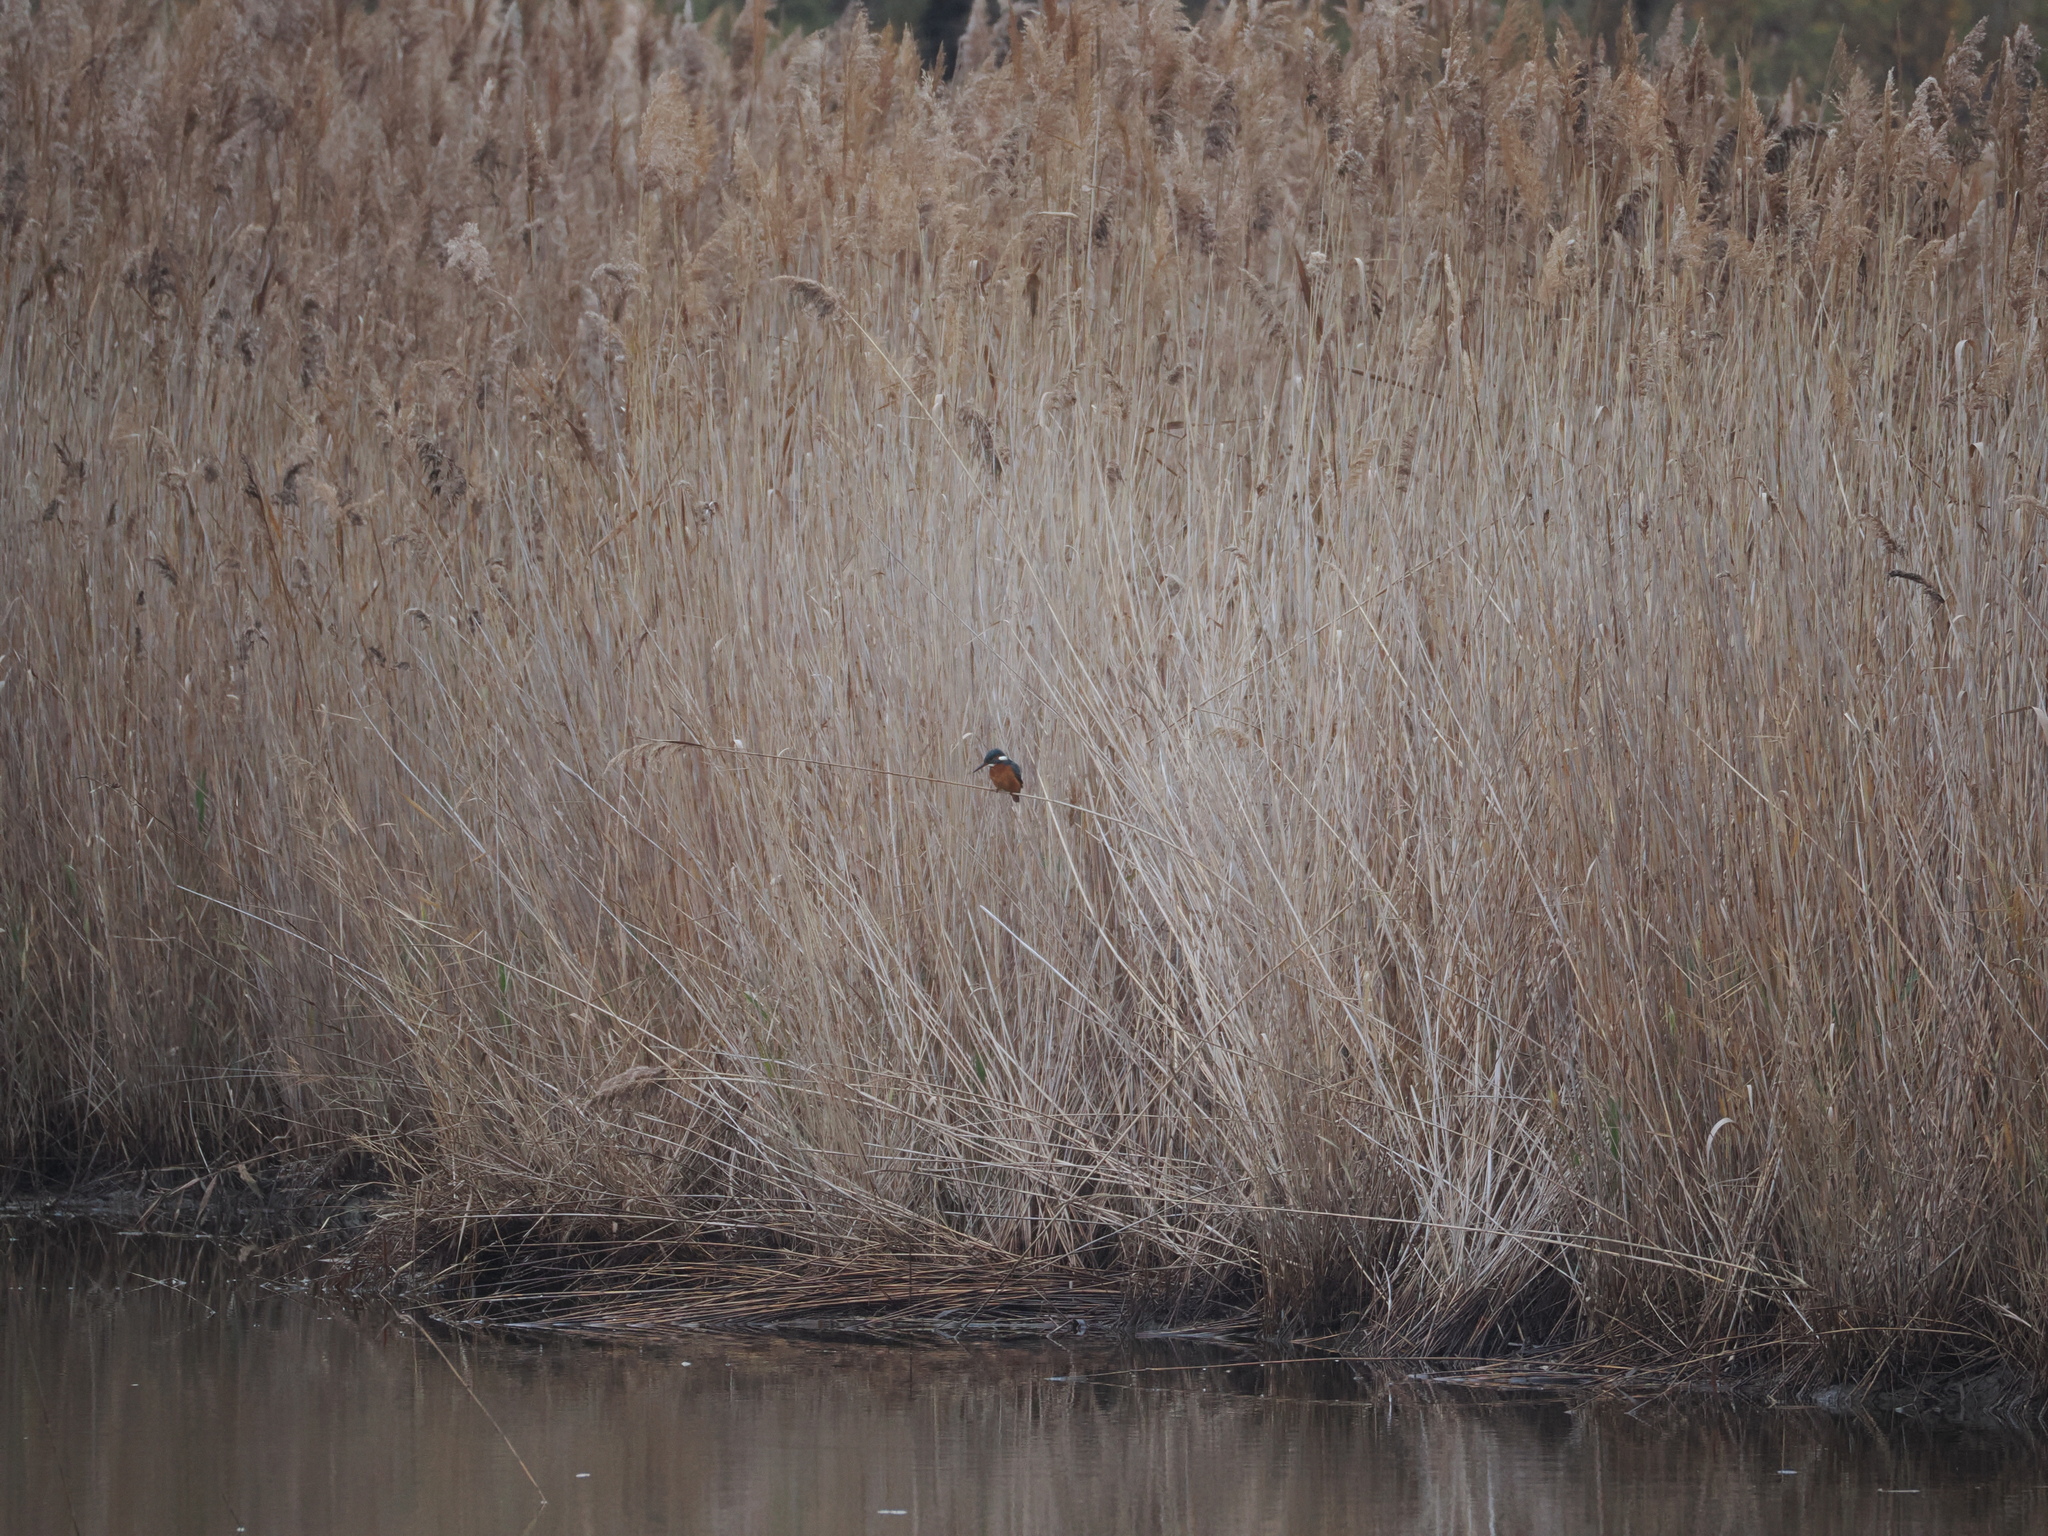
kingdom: Animalia
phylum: Chordata
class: Aves
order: Coraciiformes
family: Alcedinidae
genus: Alcedo
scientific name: Alcedo atthis
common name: Common kingfisher
